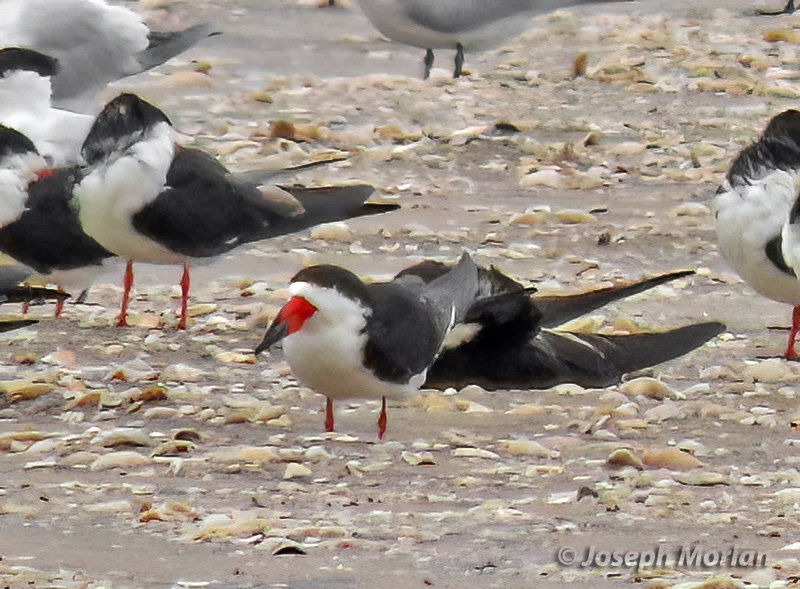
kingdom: Animalia
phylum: Chordata
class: Aves
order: Charadriiformes
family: Laridae
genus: Rynchops
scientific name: Rynchops niger
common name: Black skimmer
